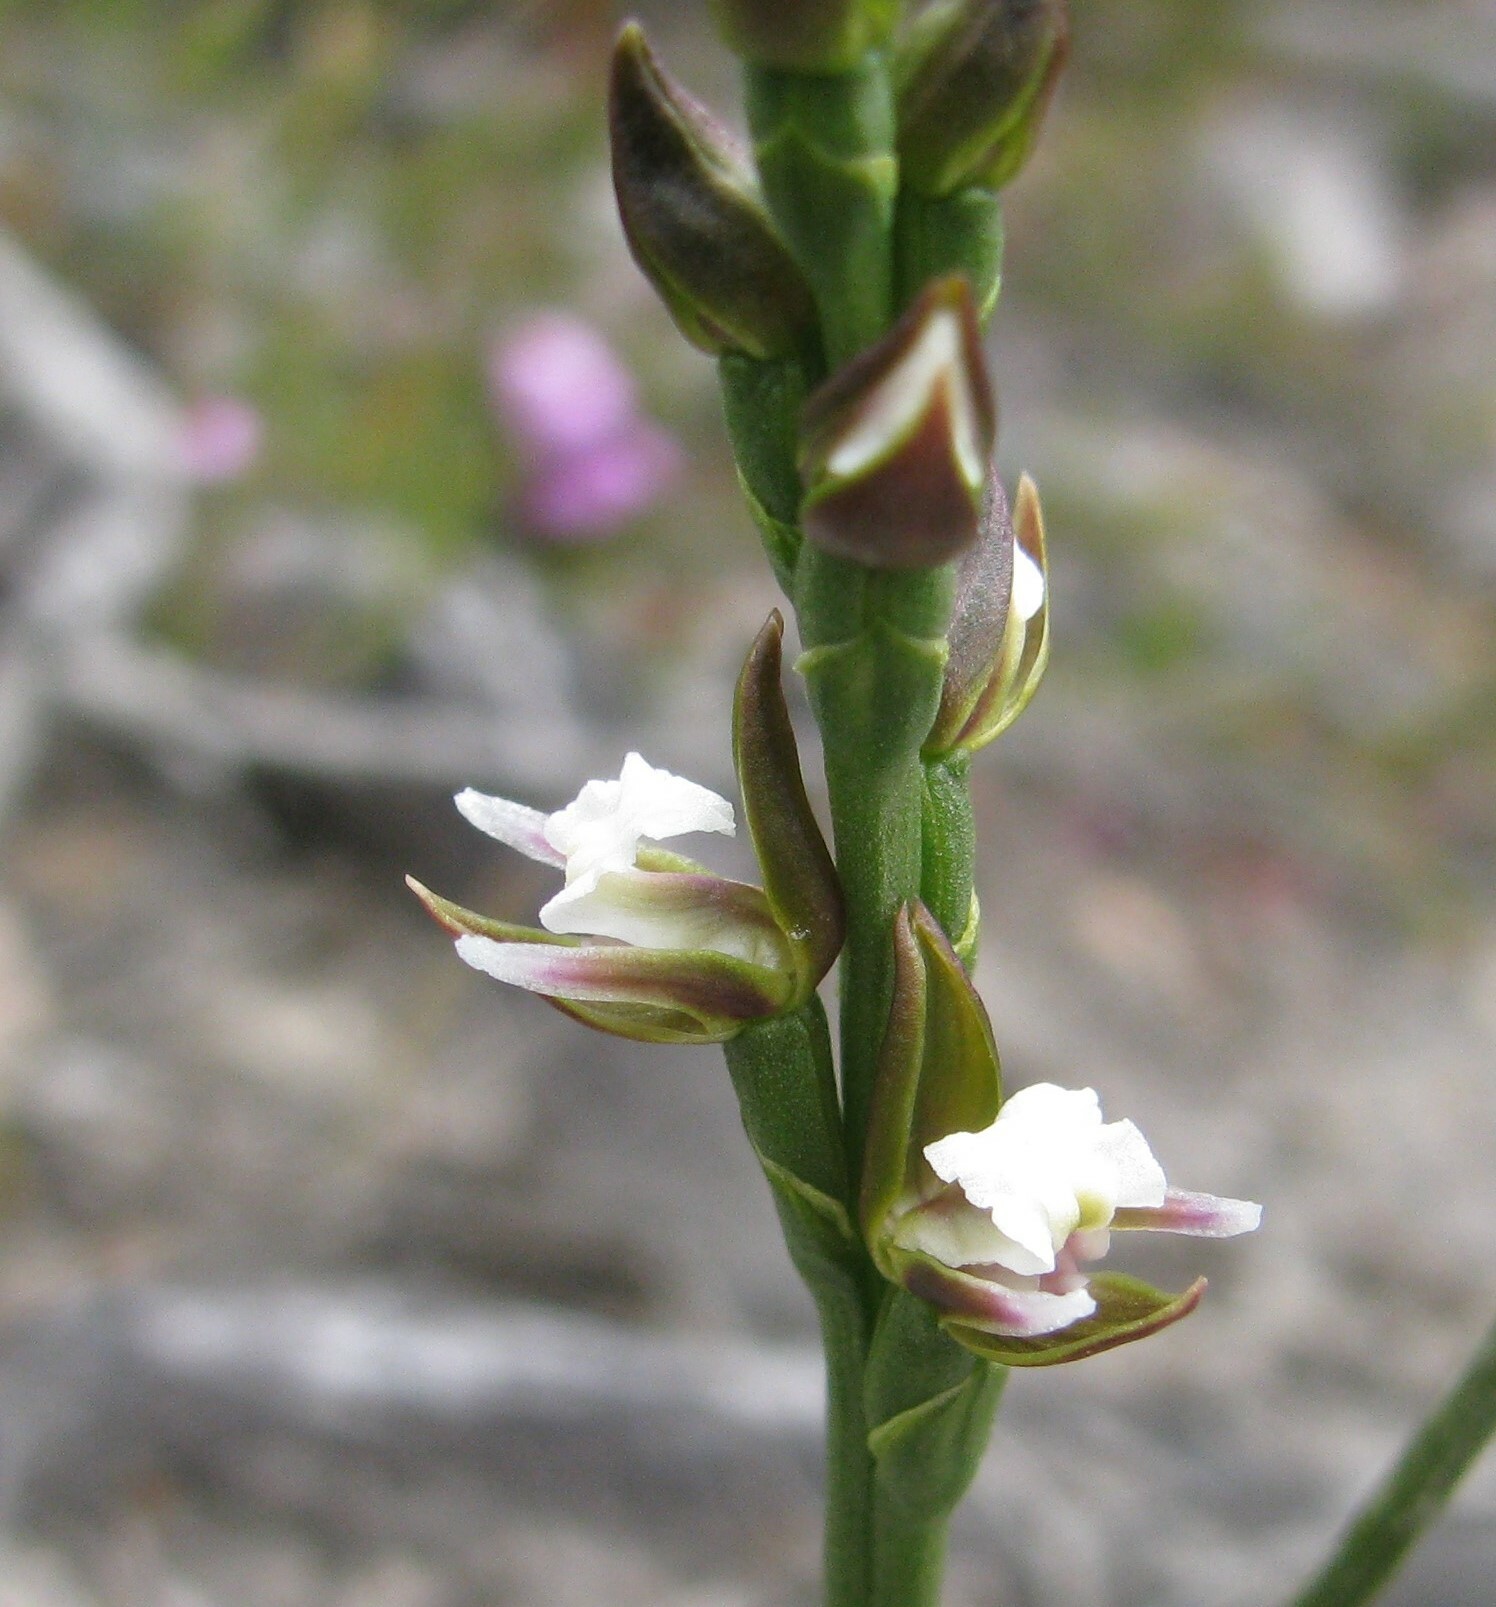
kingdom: Plantae
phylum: Tracheophyta
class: Liliopsida
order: Asparagales
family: Orchidaceae
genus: Prasophyllum
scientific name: Prasophyllum brevilabre
